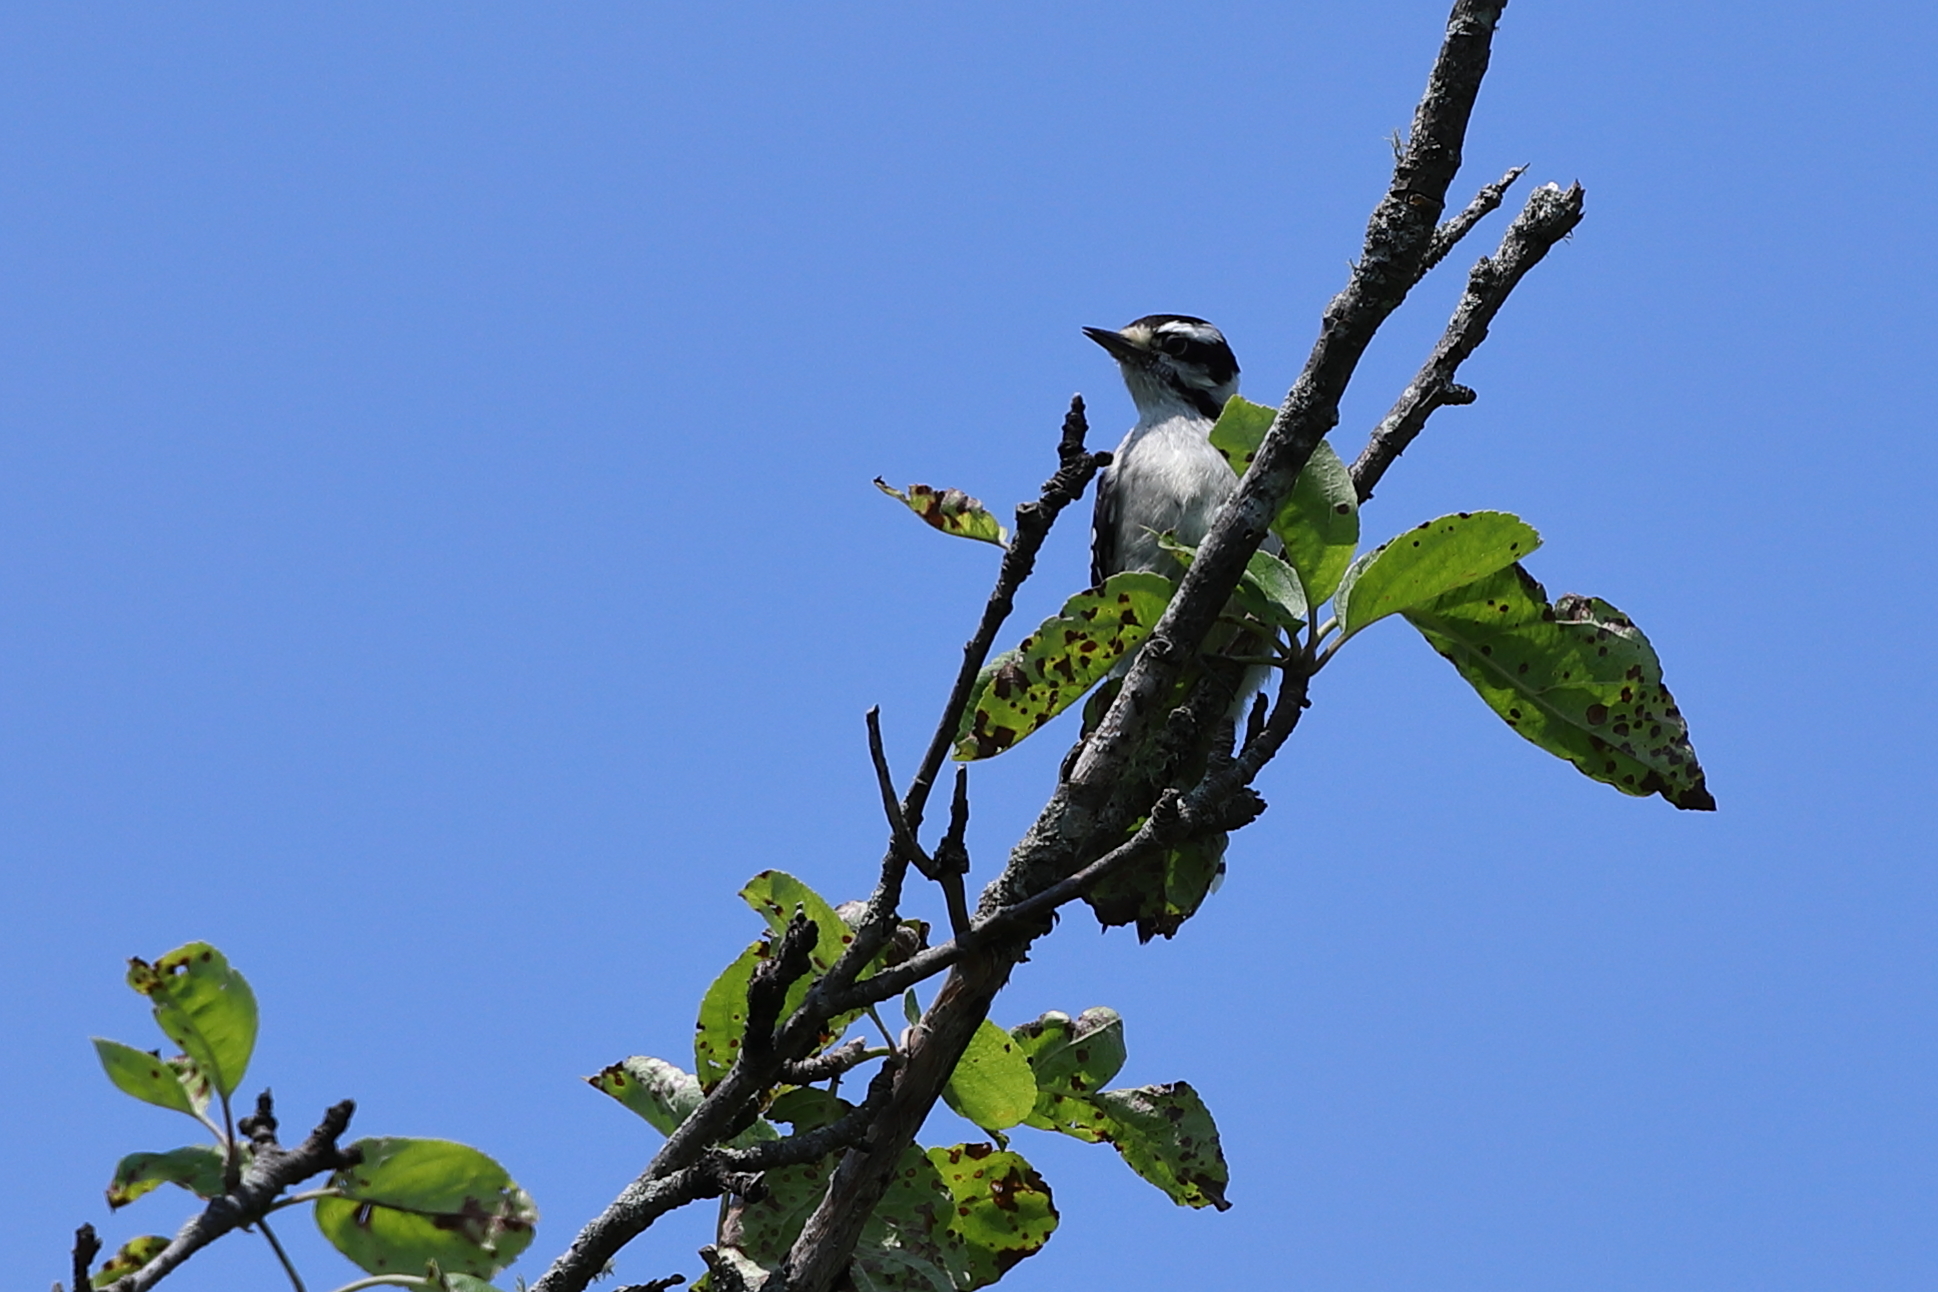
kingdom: Animalia
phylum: Chordata
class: Aves
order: Piciformes
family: Picidae
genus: Dryobates
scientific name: Dryobates pubescens
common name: Downy woodpecker
